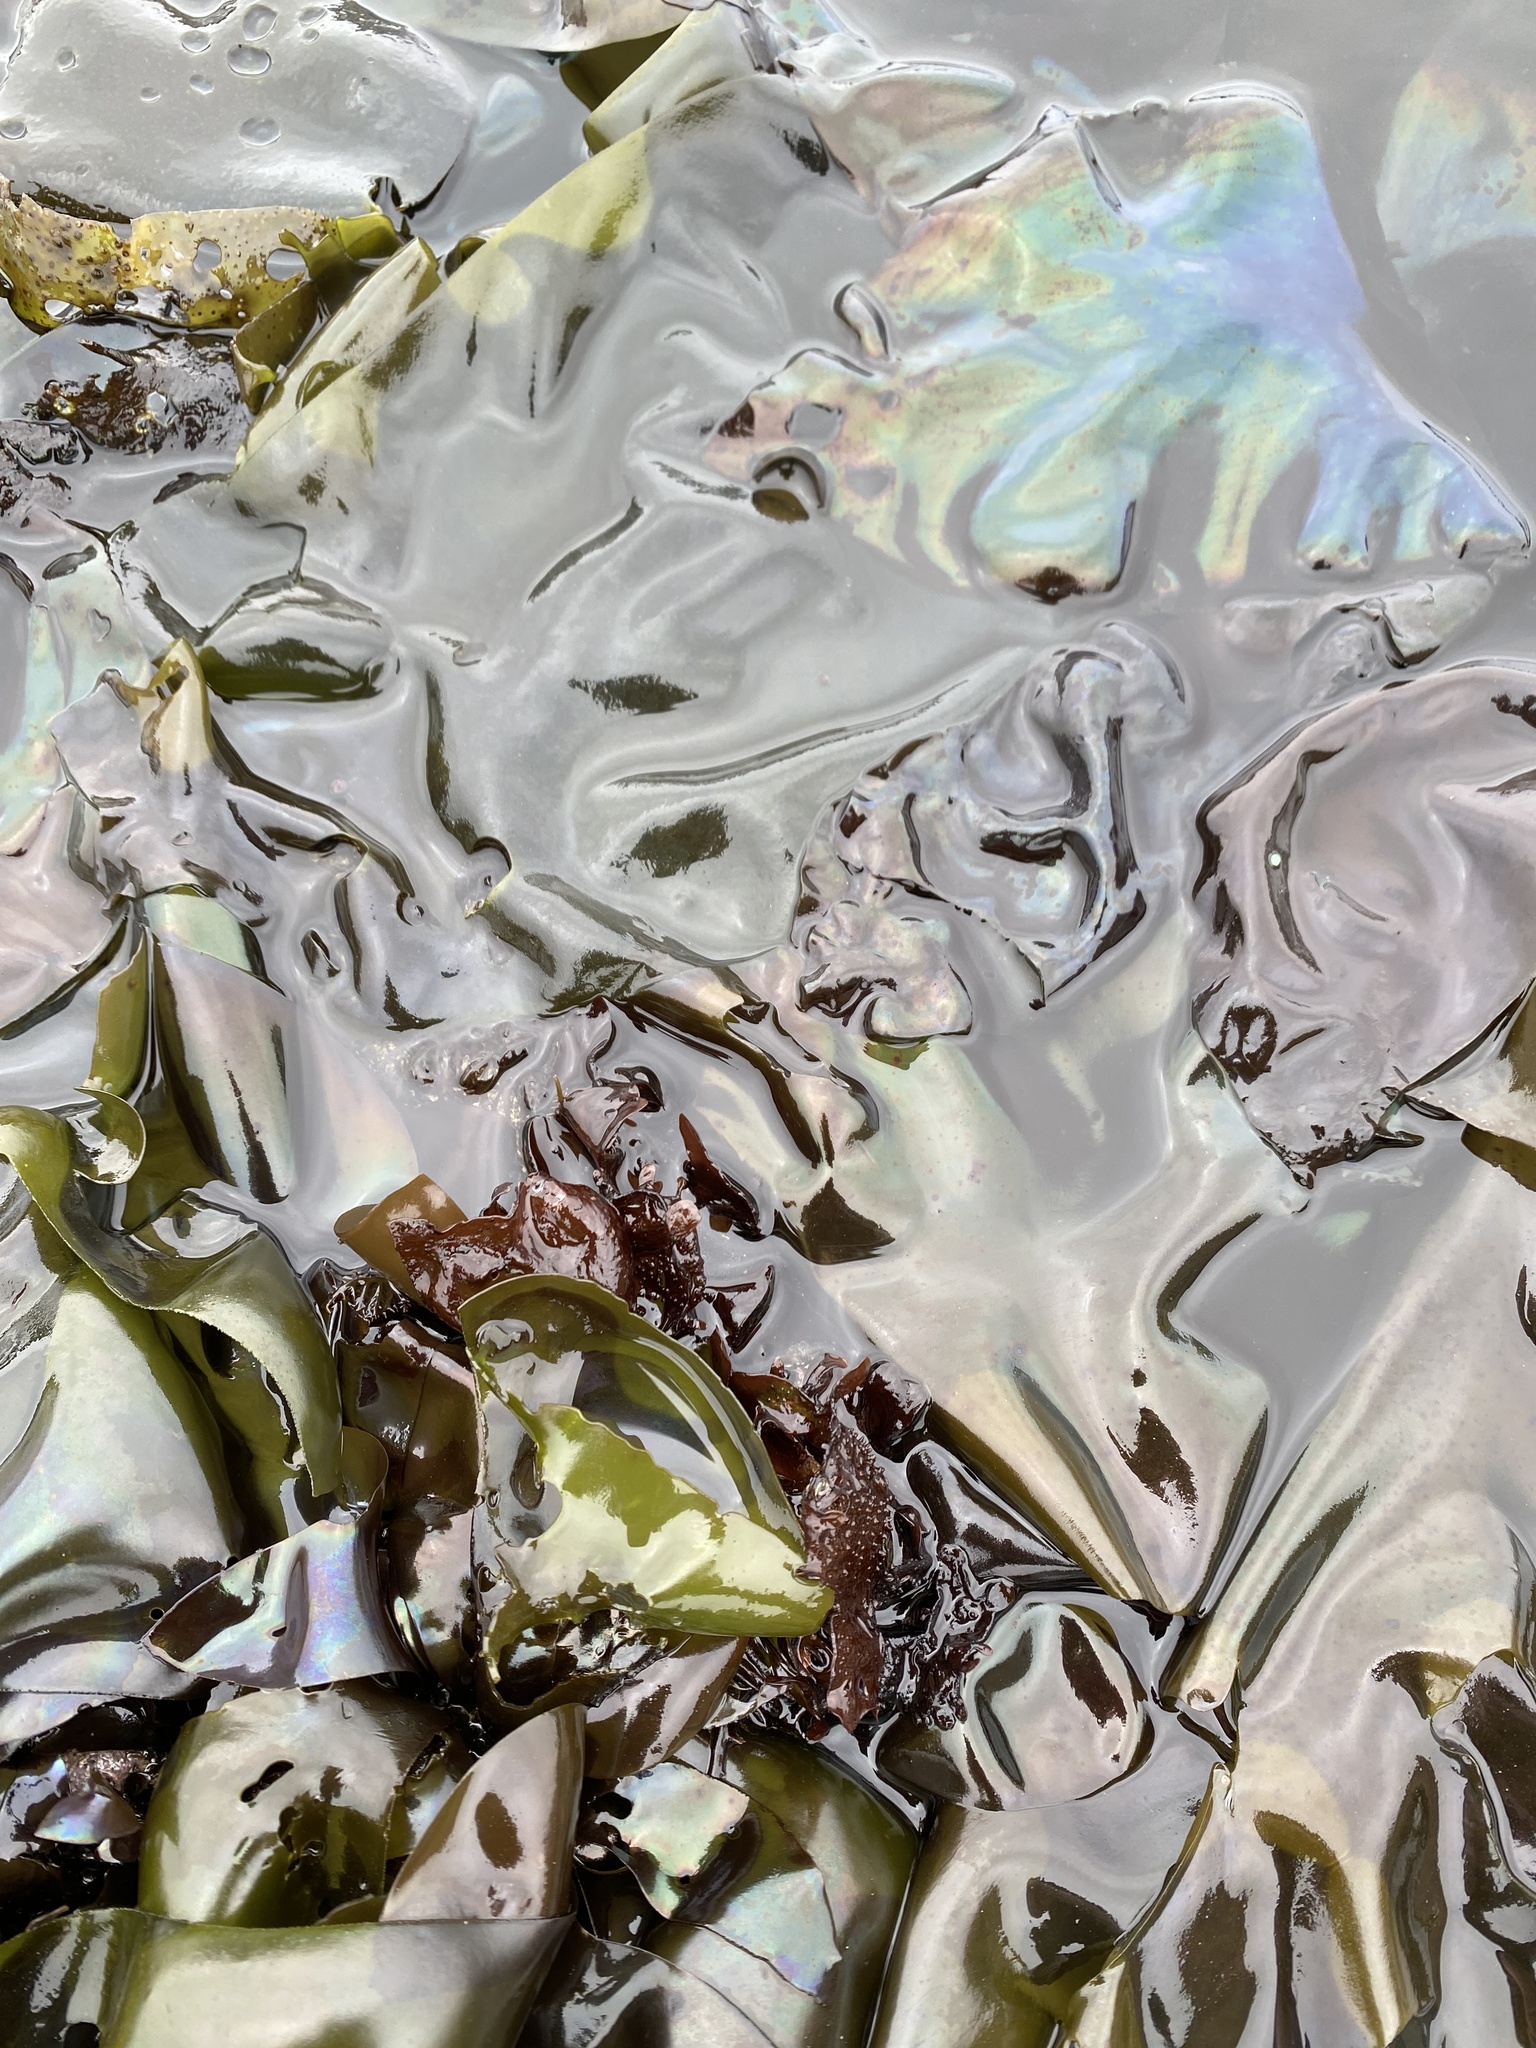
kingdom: Plantae
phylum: Rhodophyta
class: Florideophyceae
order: Gigartinales
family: Gigartinaceae
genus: Mazzaella
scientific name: Mazzaella splendens
